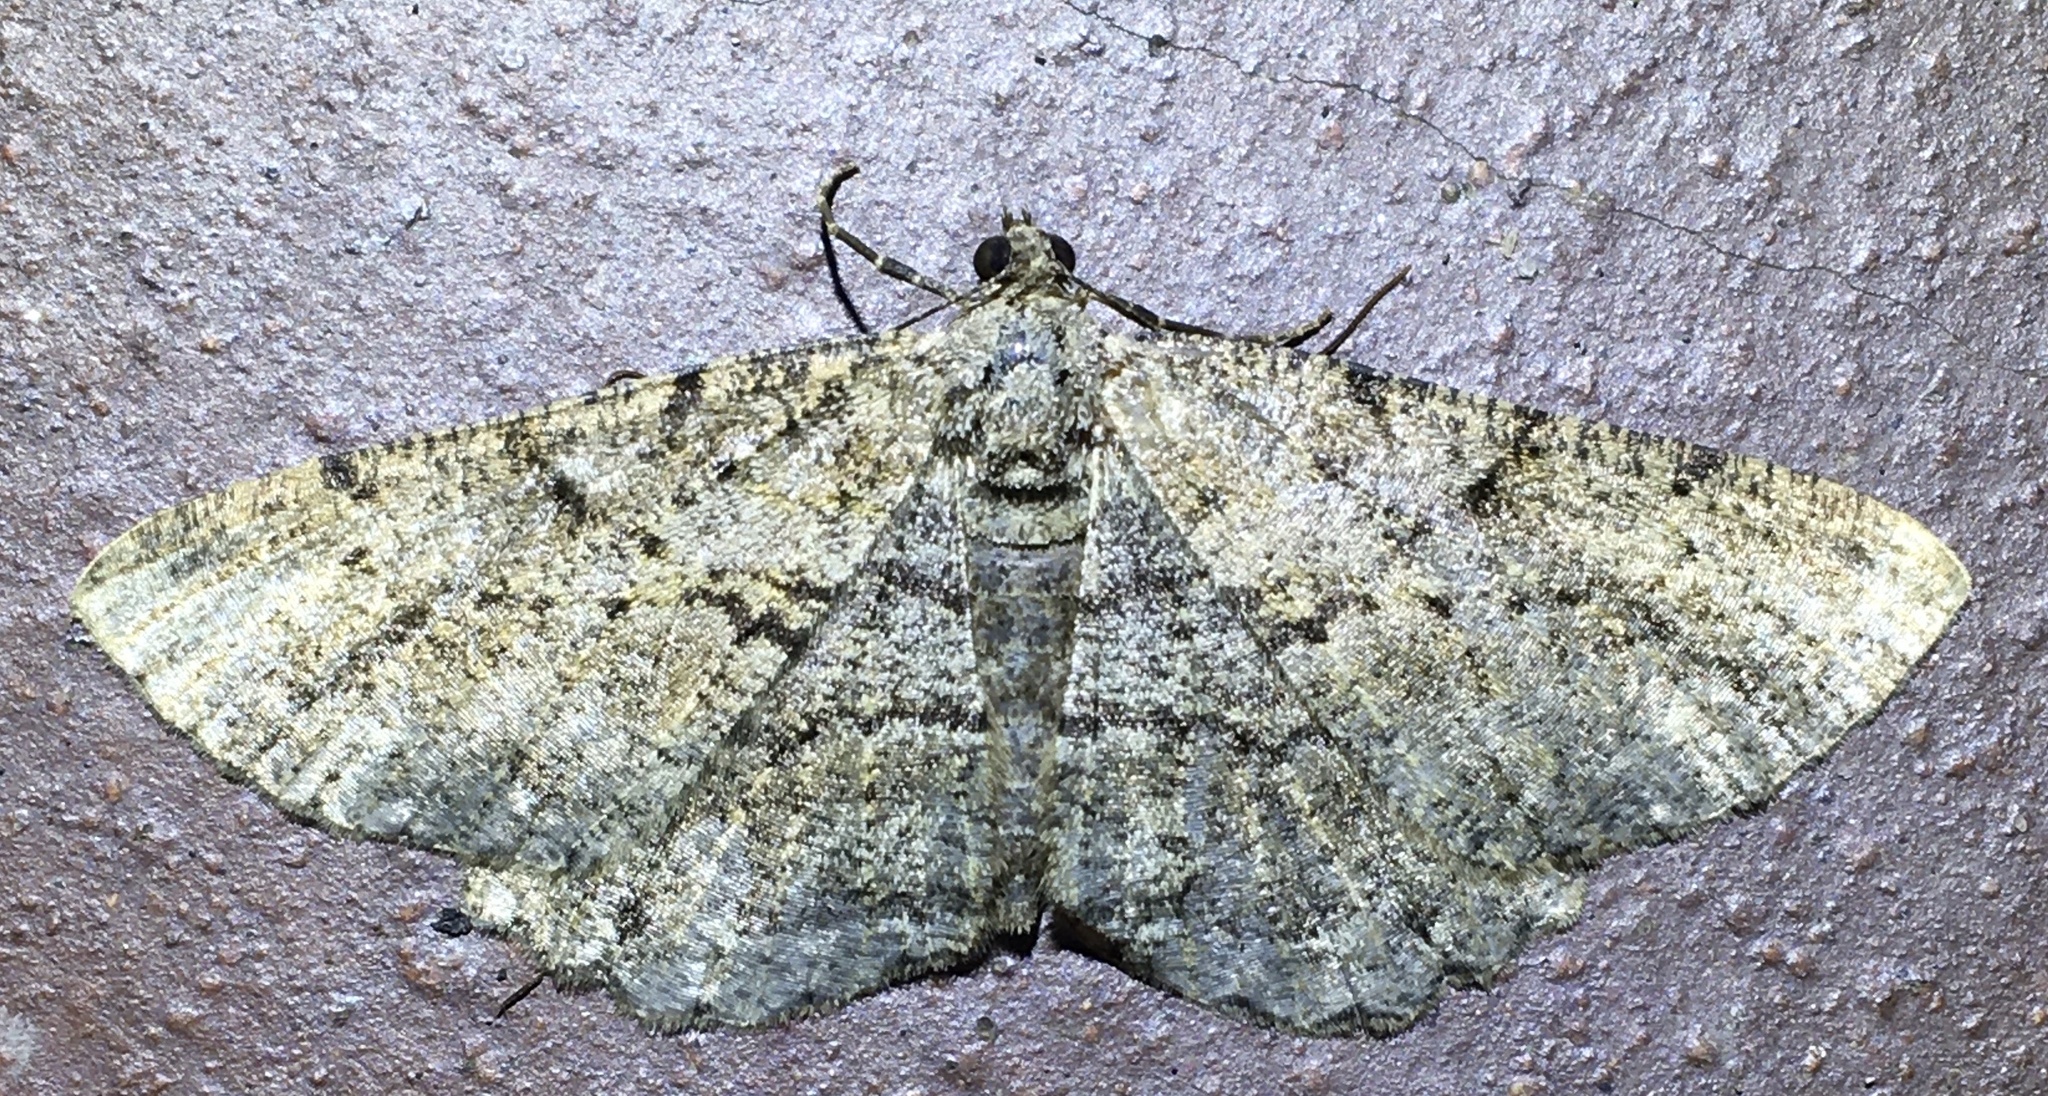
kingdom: Animalia
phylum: Arthropoda
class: Insecta
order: Lepidoptera
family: Geometridae
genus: Peribatodes
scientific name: Peribatodes rhomboidaria
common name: Willow beauty
